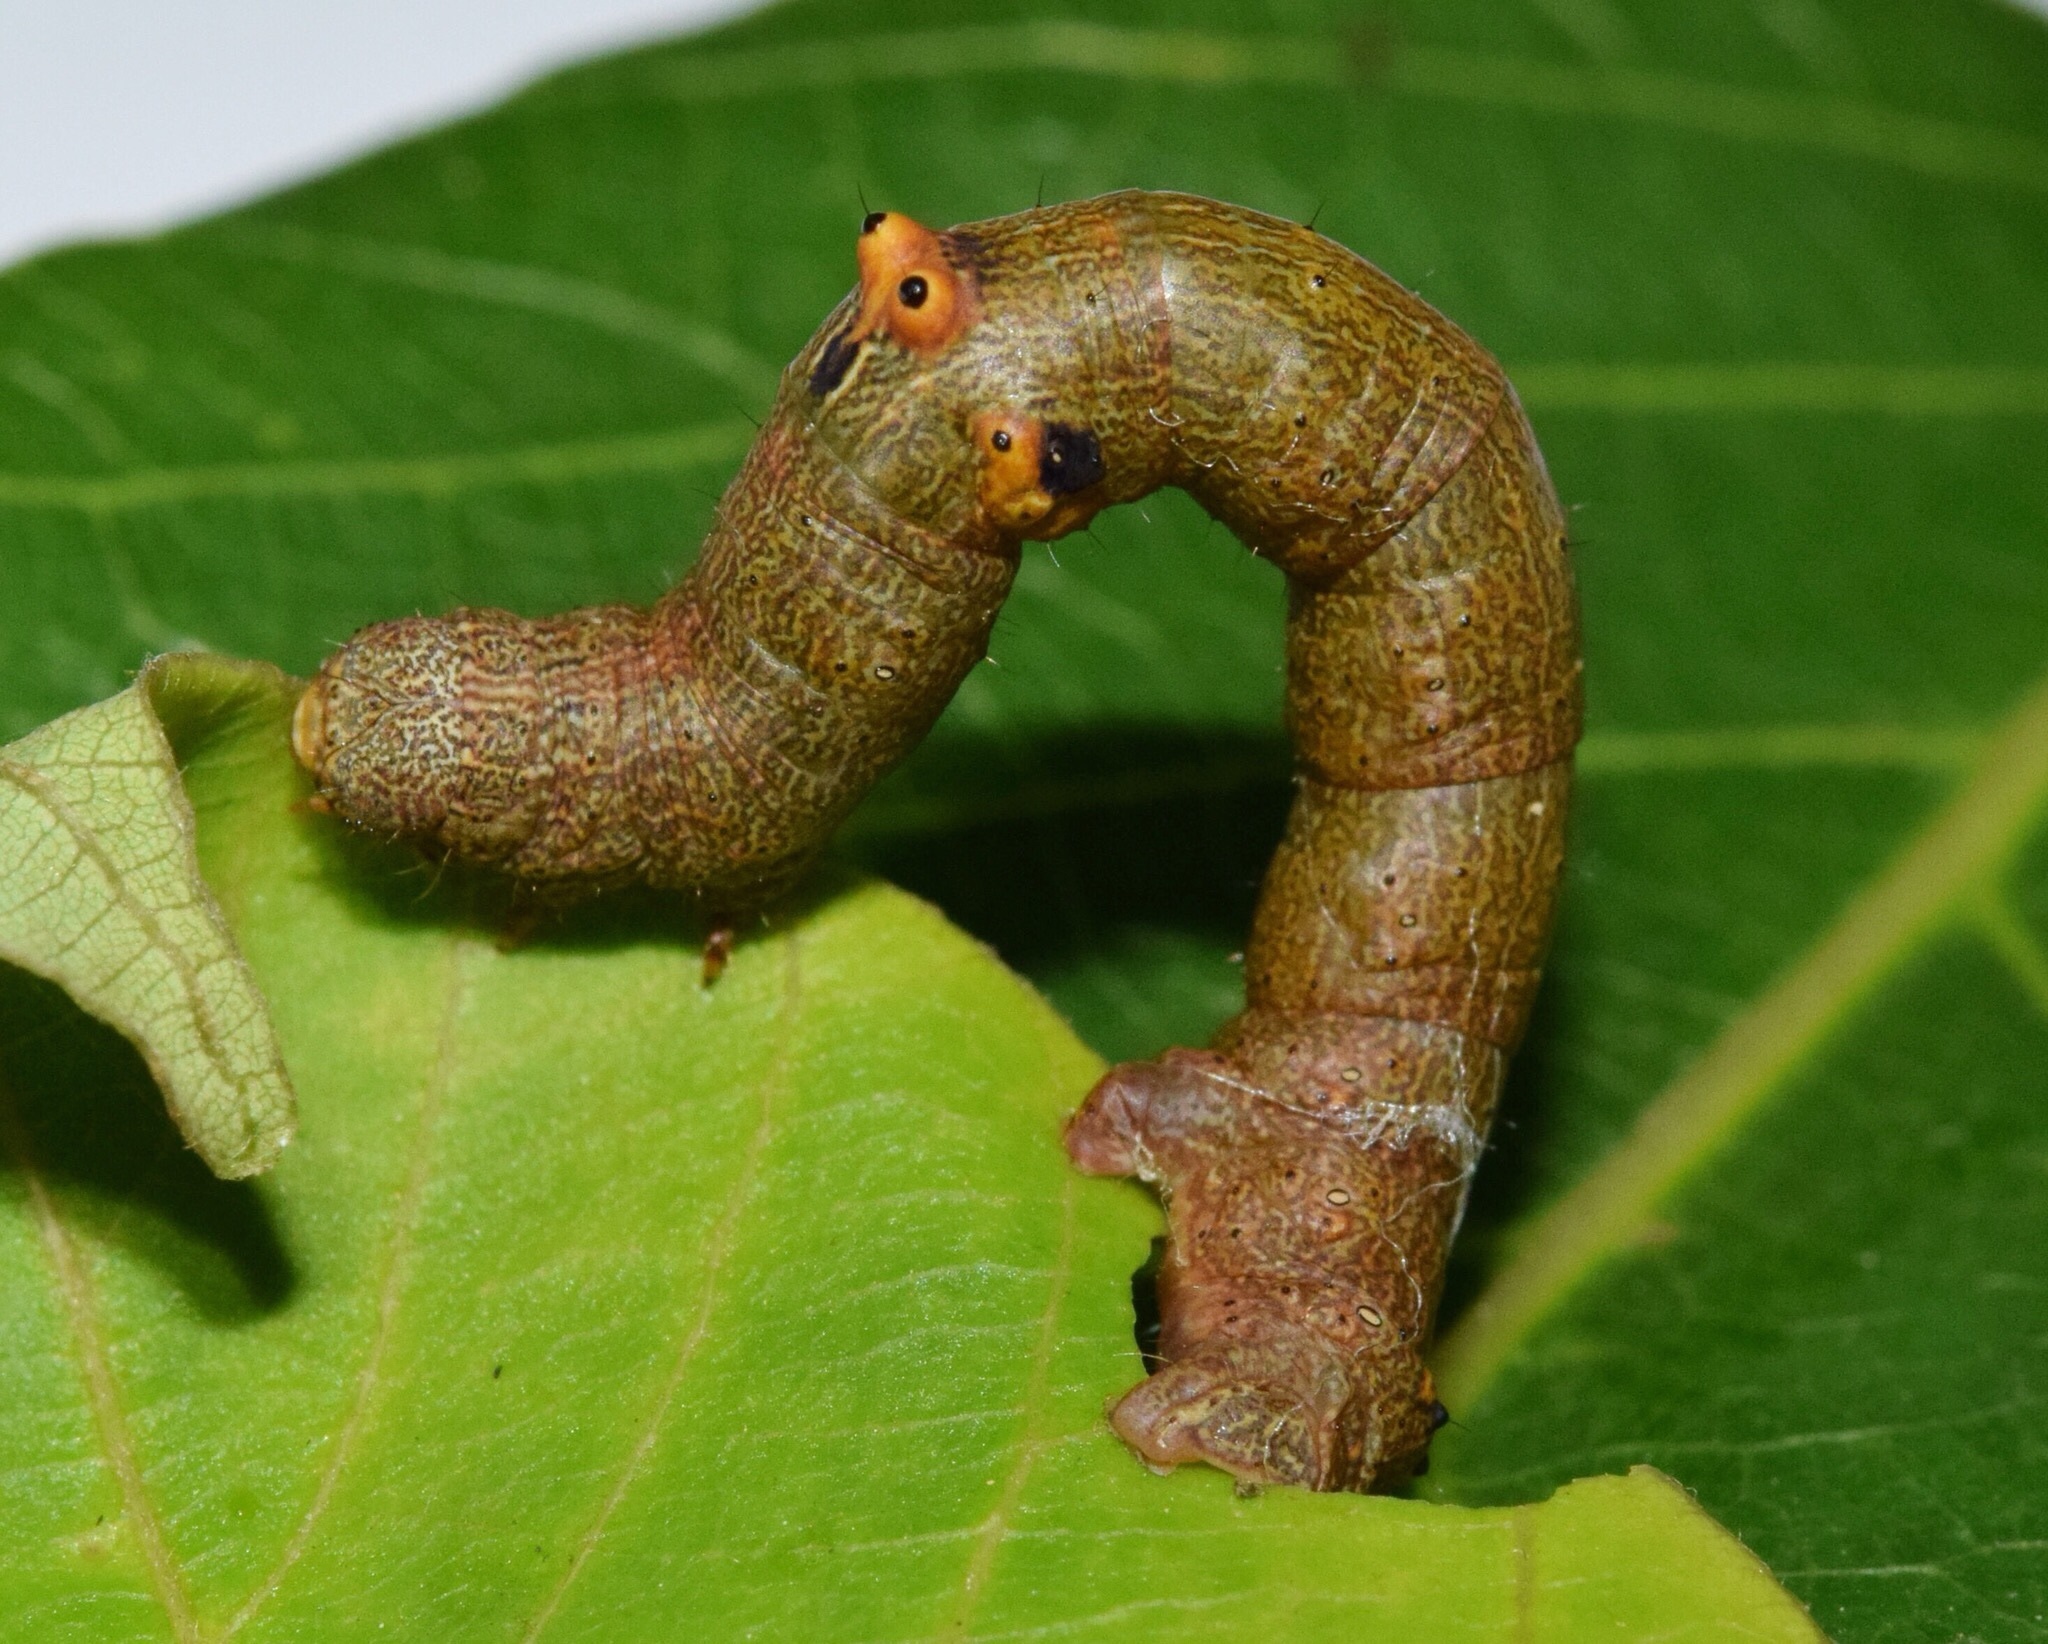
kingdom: Animalia
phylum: Arthropoda
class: Insecta
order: Lepidoptera
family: Geometridae
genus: Ascotis
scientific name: Ascotis reciprocaria
